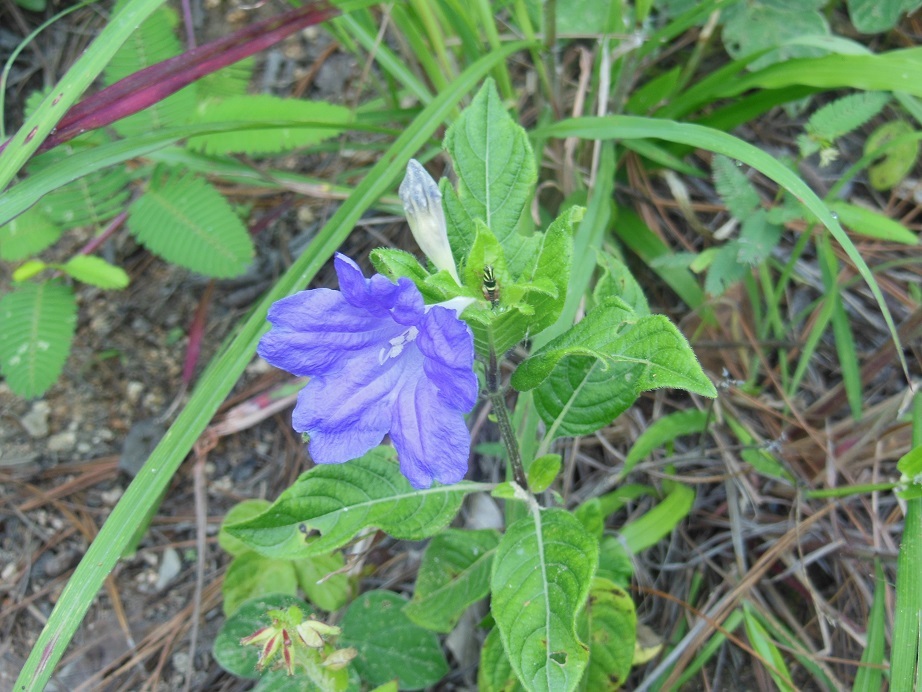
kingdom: Plantae
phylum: Tracheophyta
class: Magnoliopsida
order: Lamiales
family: Acanthaceae
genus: Ruellia
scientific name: Ruellia lactea
